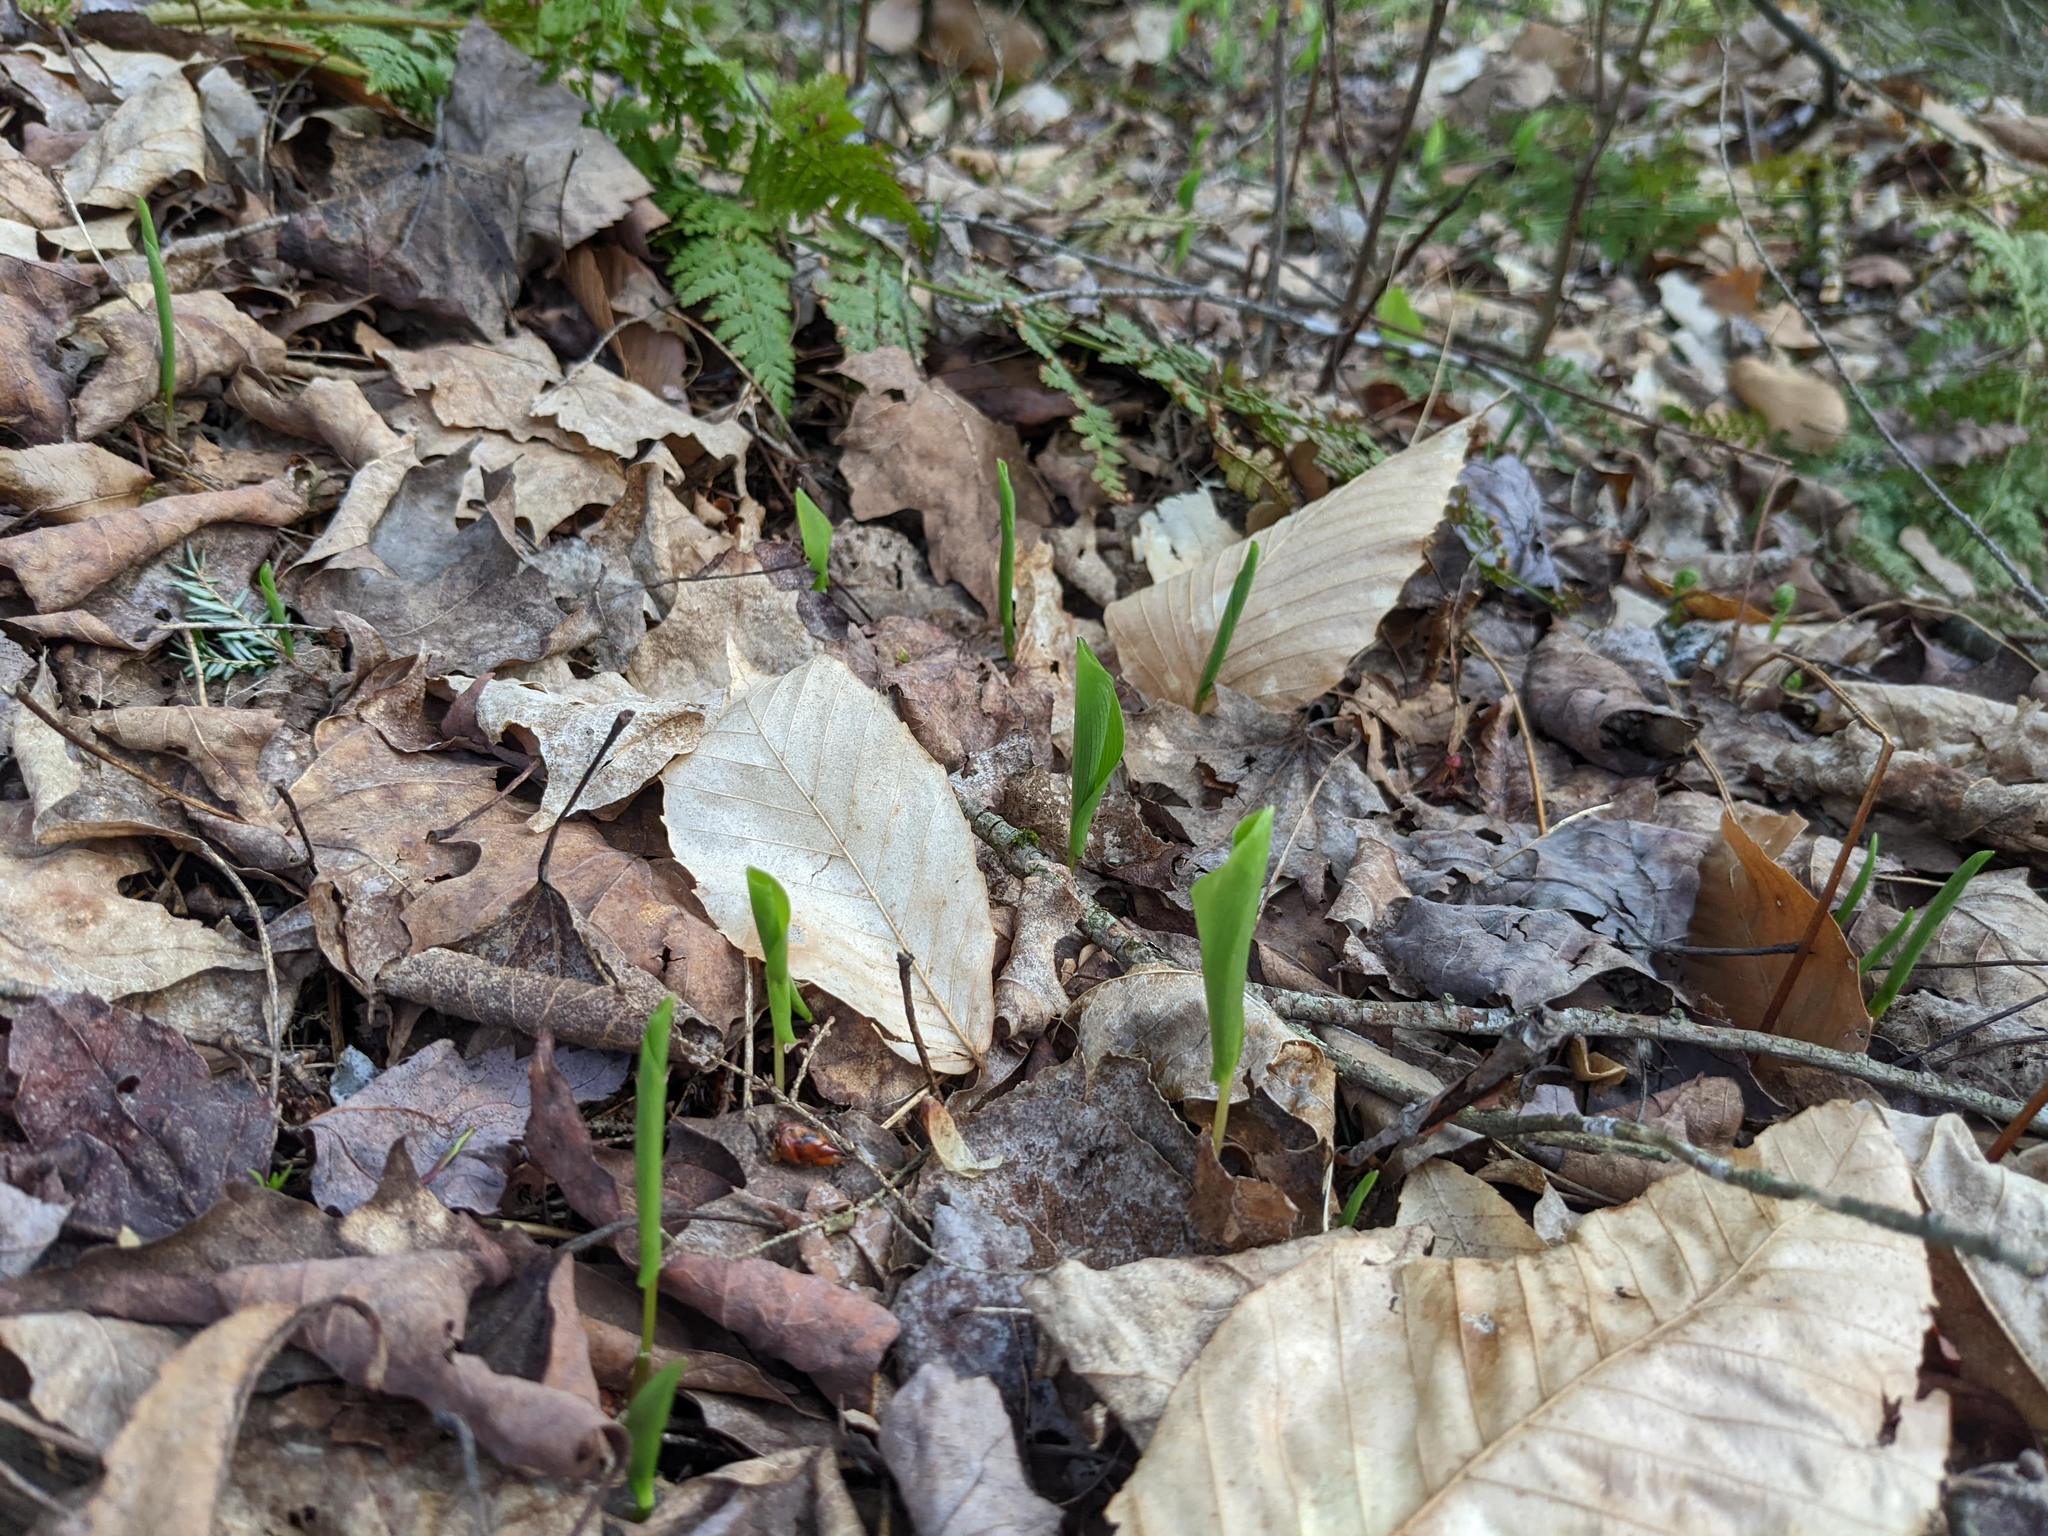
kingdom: Plantae
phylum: Tracheophyta
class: Magnoliopsida
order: Fagales
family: Fagaceae
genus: Fagus
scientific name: Fagus grandifolia
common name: American beech
